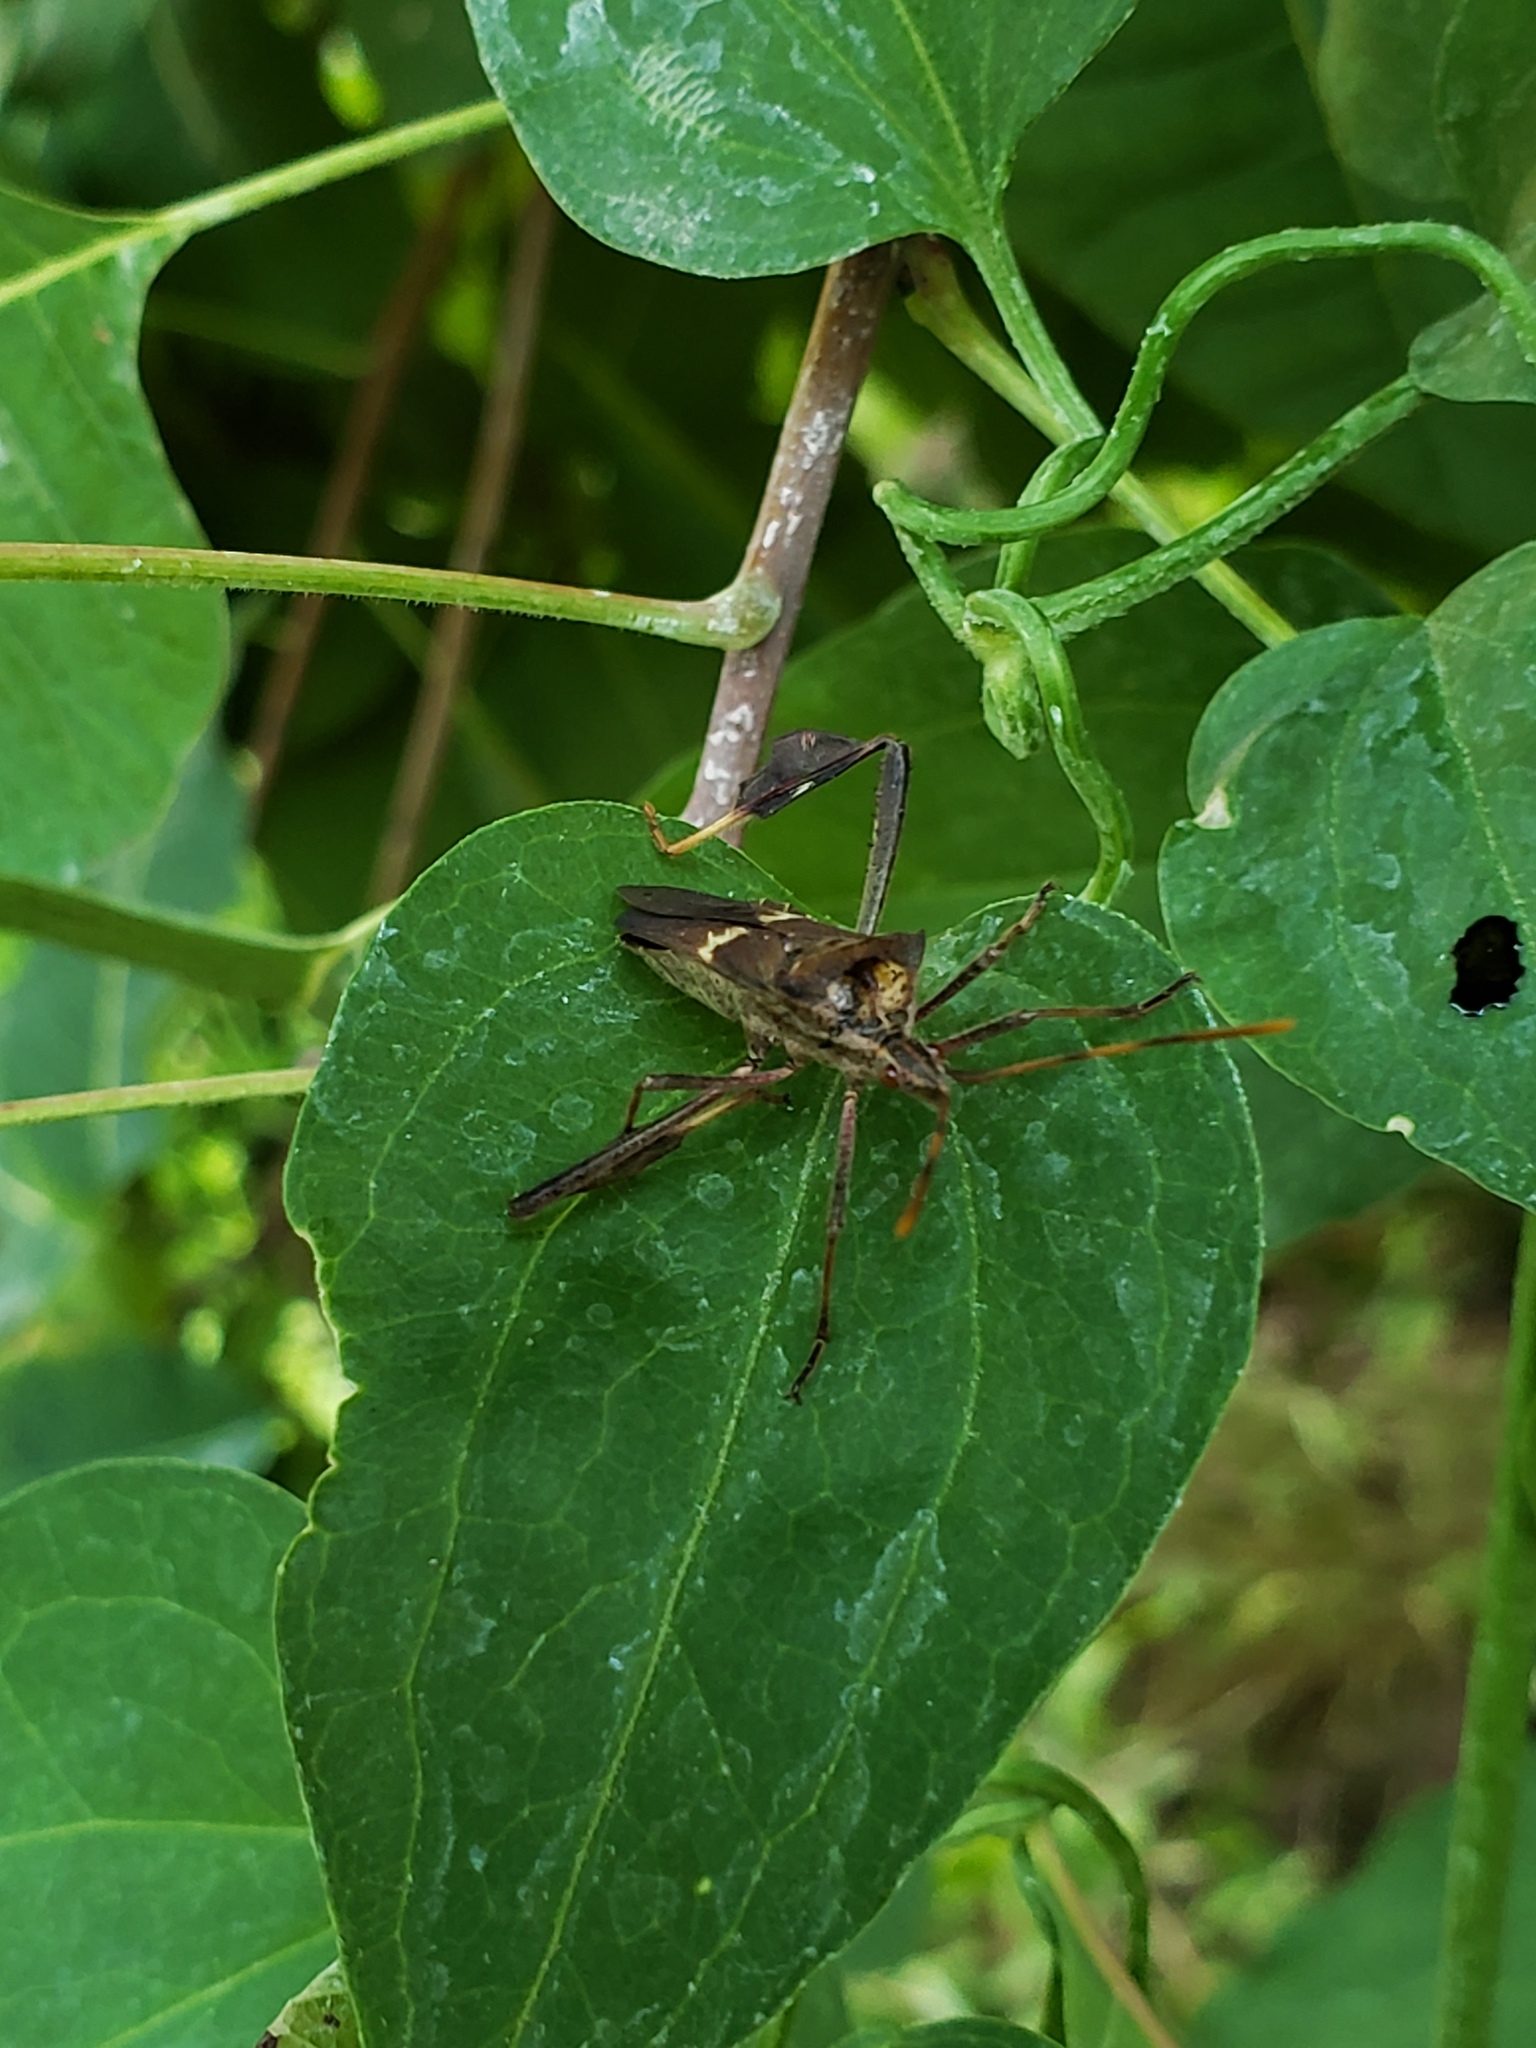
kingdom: Animalia
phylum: Arthropoda
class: Insecta
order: Hemiptera
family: Coreidae
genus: Leptoglossus
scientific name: Leptoglossus zonatus
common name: Large-legged bug
